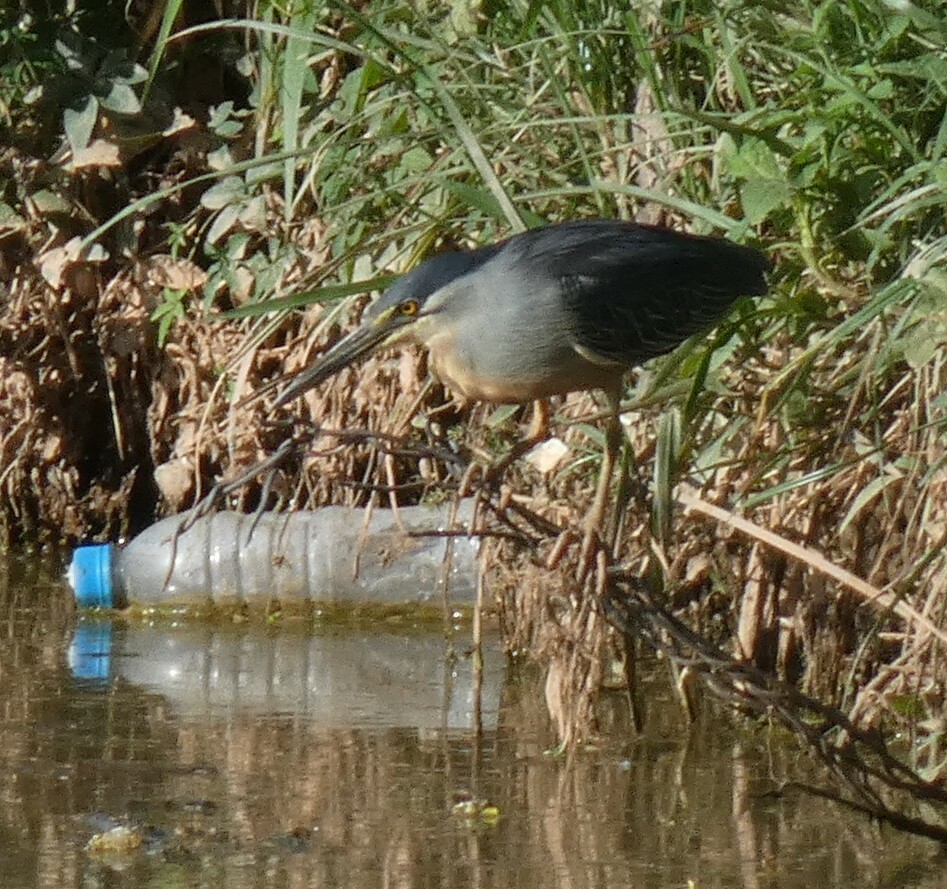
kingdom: Animalia
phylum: Chordata
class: Aves
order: Pelecaniformes
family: Ardeidae
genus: Butorides
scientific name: Butorides striata
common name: Striated heron
